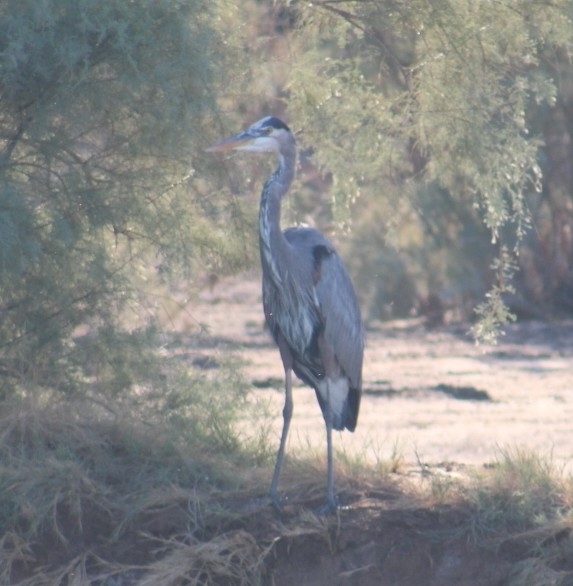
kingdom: Animalia
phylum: Chordata
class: Aves
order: Pelecaniformes
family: Ardeidae
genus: Ardea
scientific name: Ardea herodias
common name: Great blue heron
